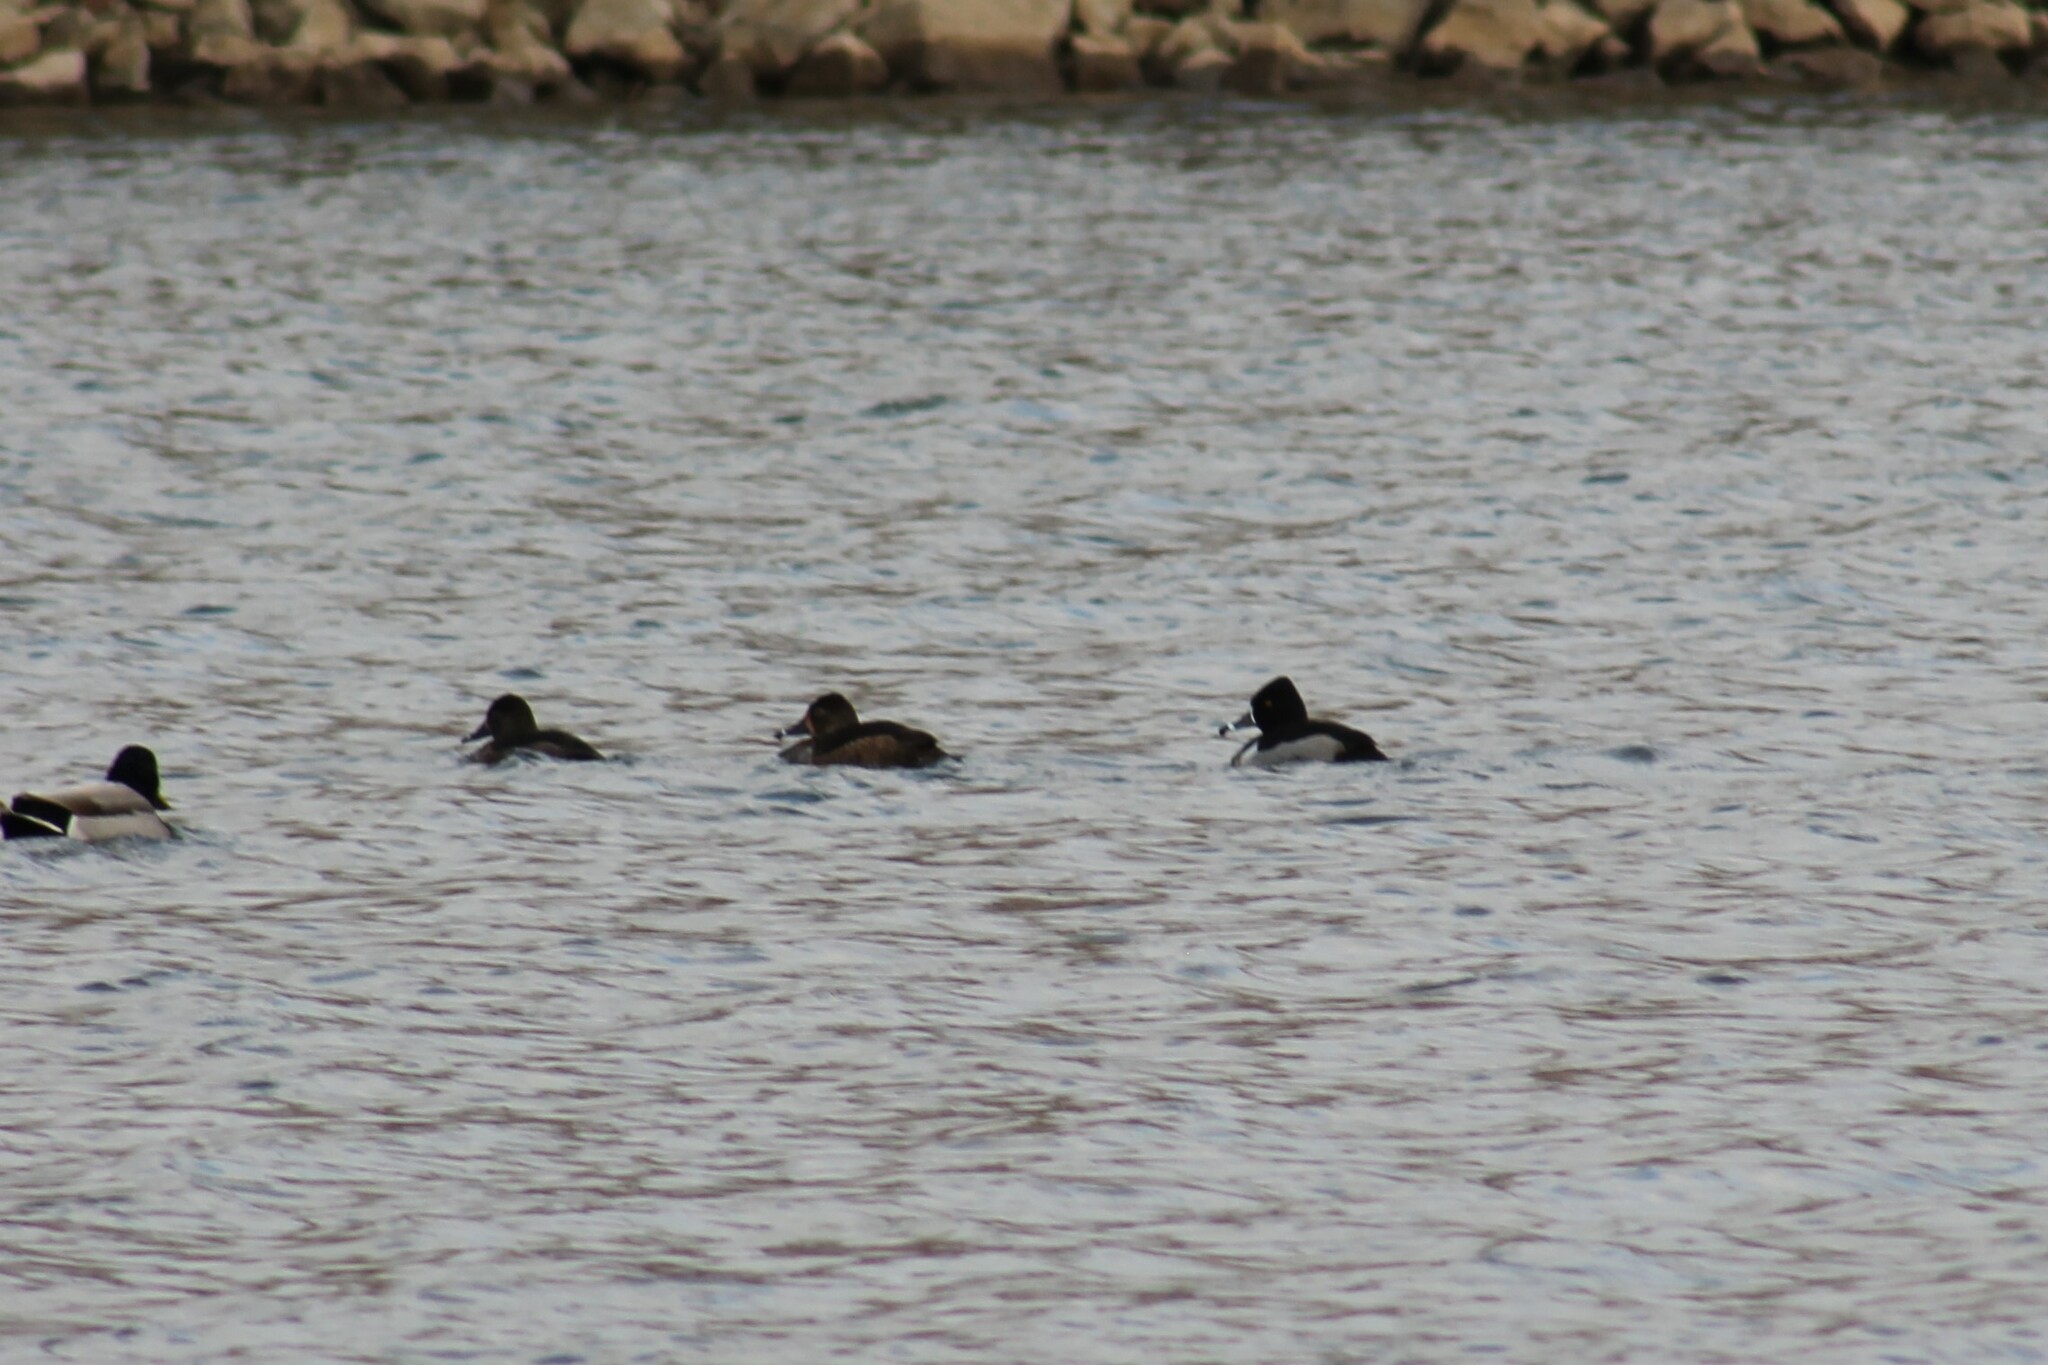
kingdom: Animalia
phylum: Chordata
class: Aves
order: Anseriformes
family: Anatidae
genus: Aythya
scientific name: Aythya collaris
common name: Ring-necked duck
